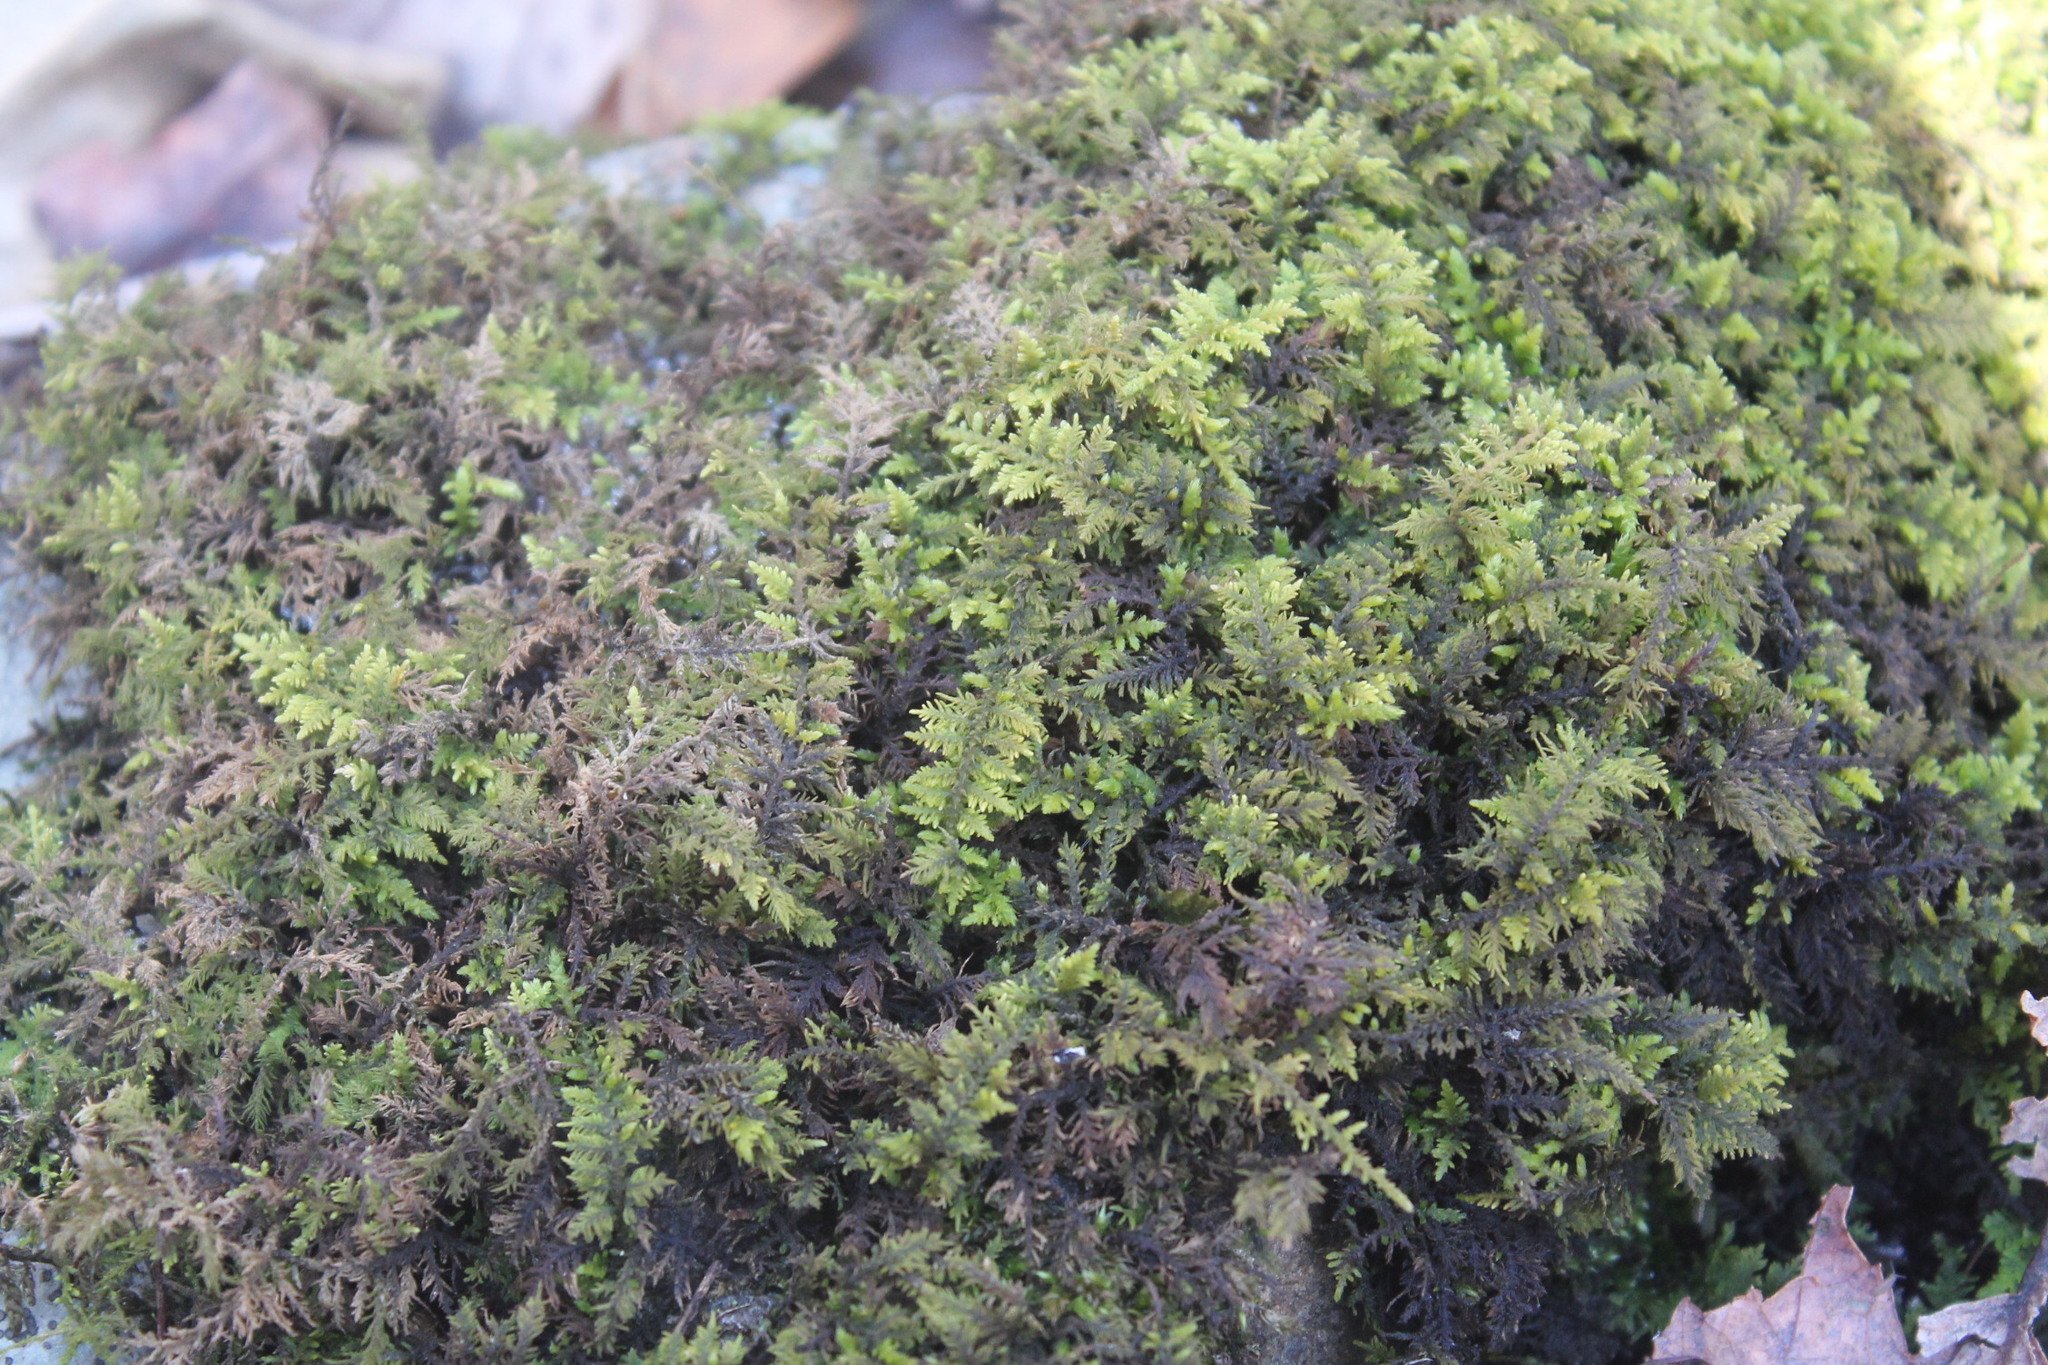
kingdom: Plantae
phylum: Bryophyta
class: Bryopsida
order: Hypnales
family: Thuidiaceae
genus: Thuidium
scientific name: Thuidium delicatulum
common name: Delicate fern moss
